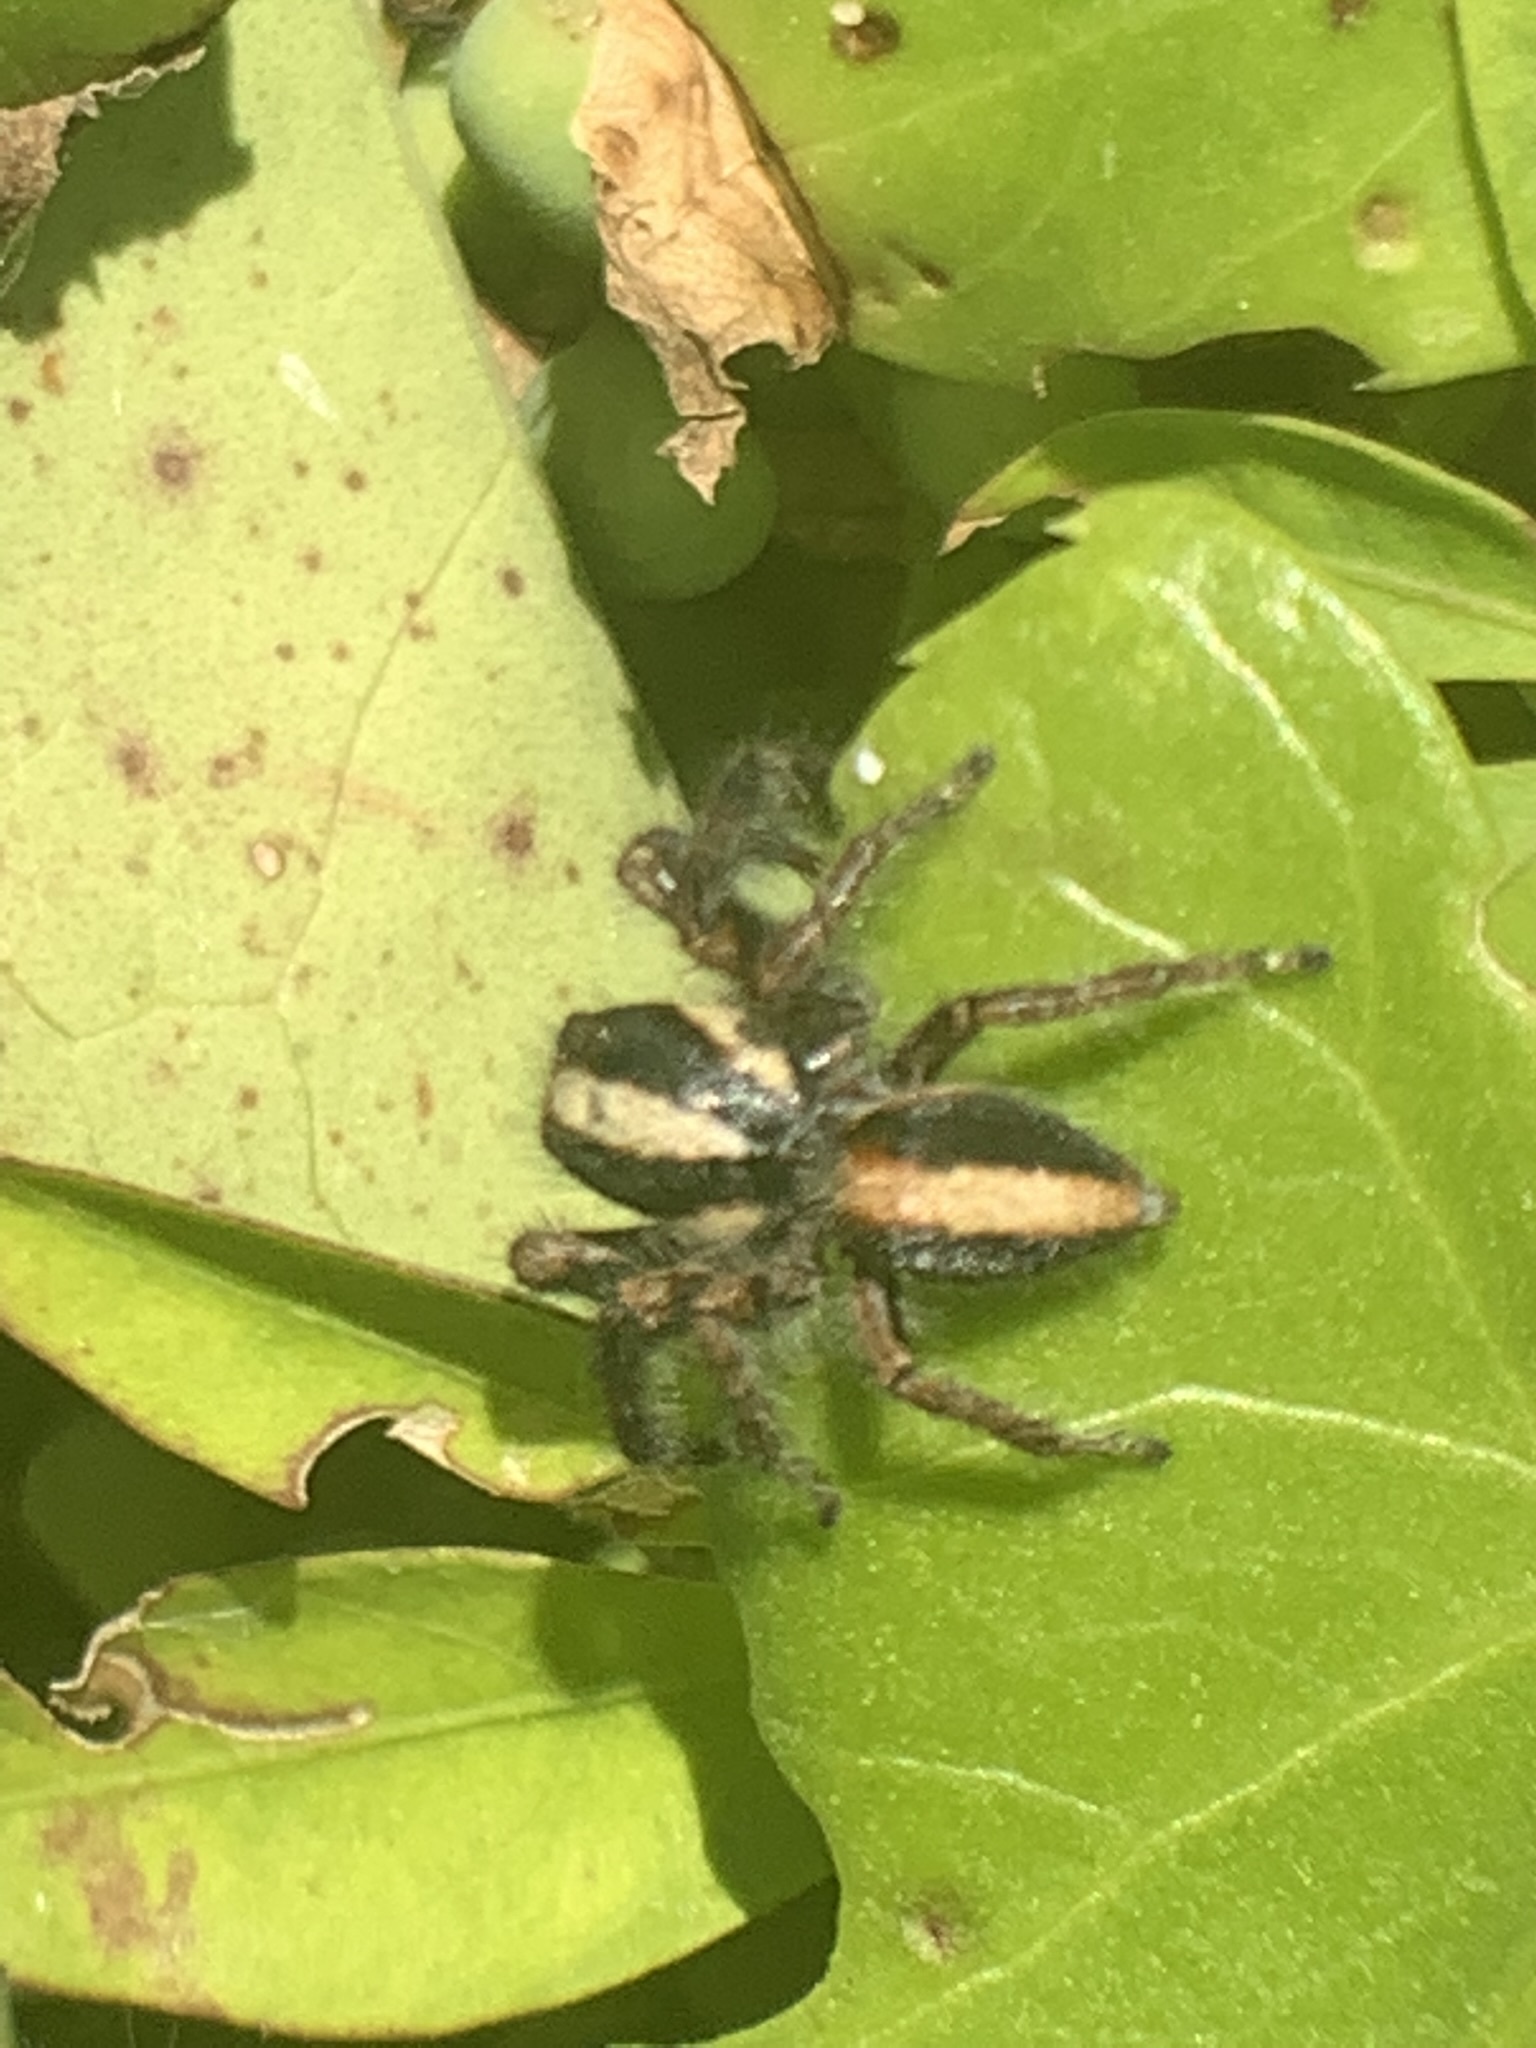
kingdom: Animalia
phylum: Arthropoda
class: Arachnida
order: Araneae
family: Salticidae
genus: Megafreya
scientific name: Megafreya sutrix
